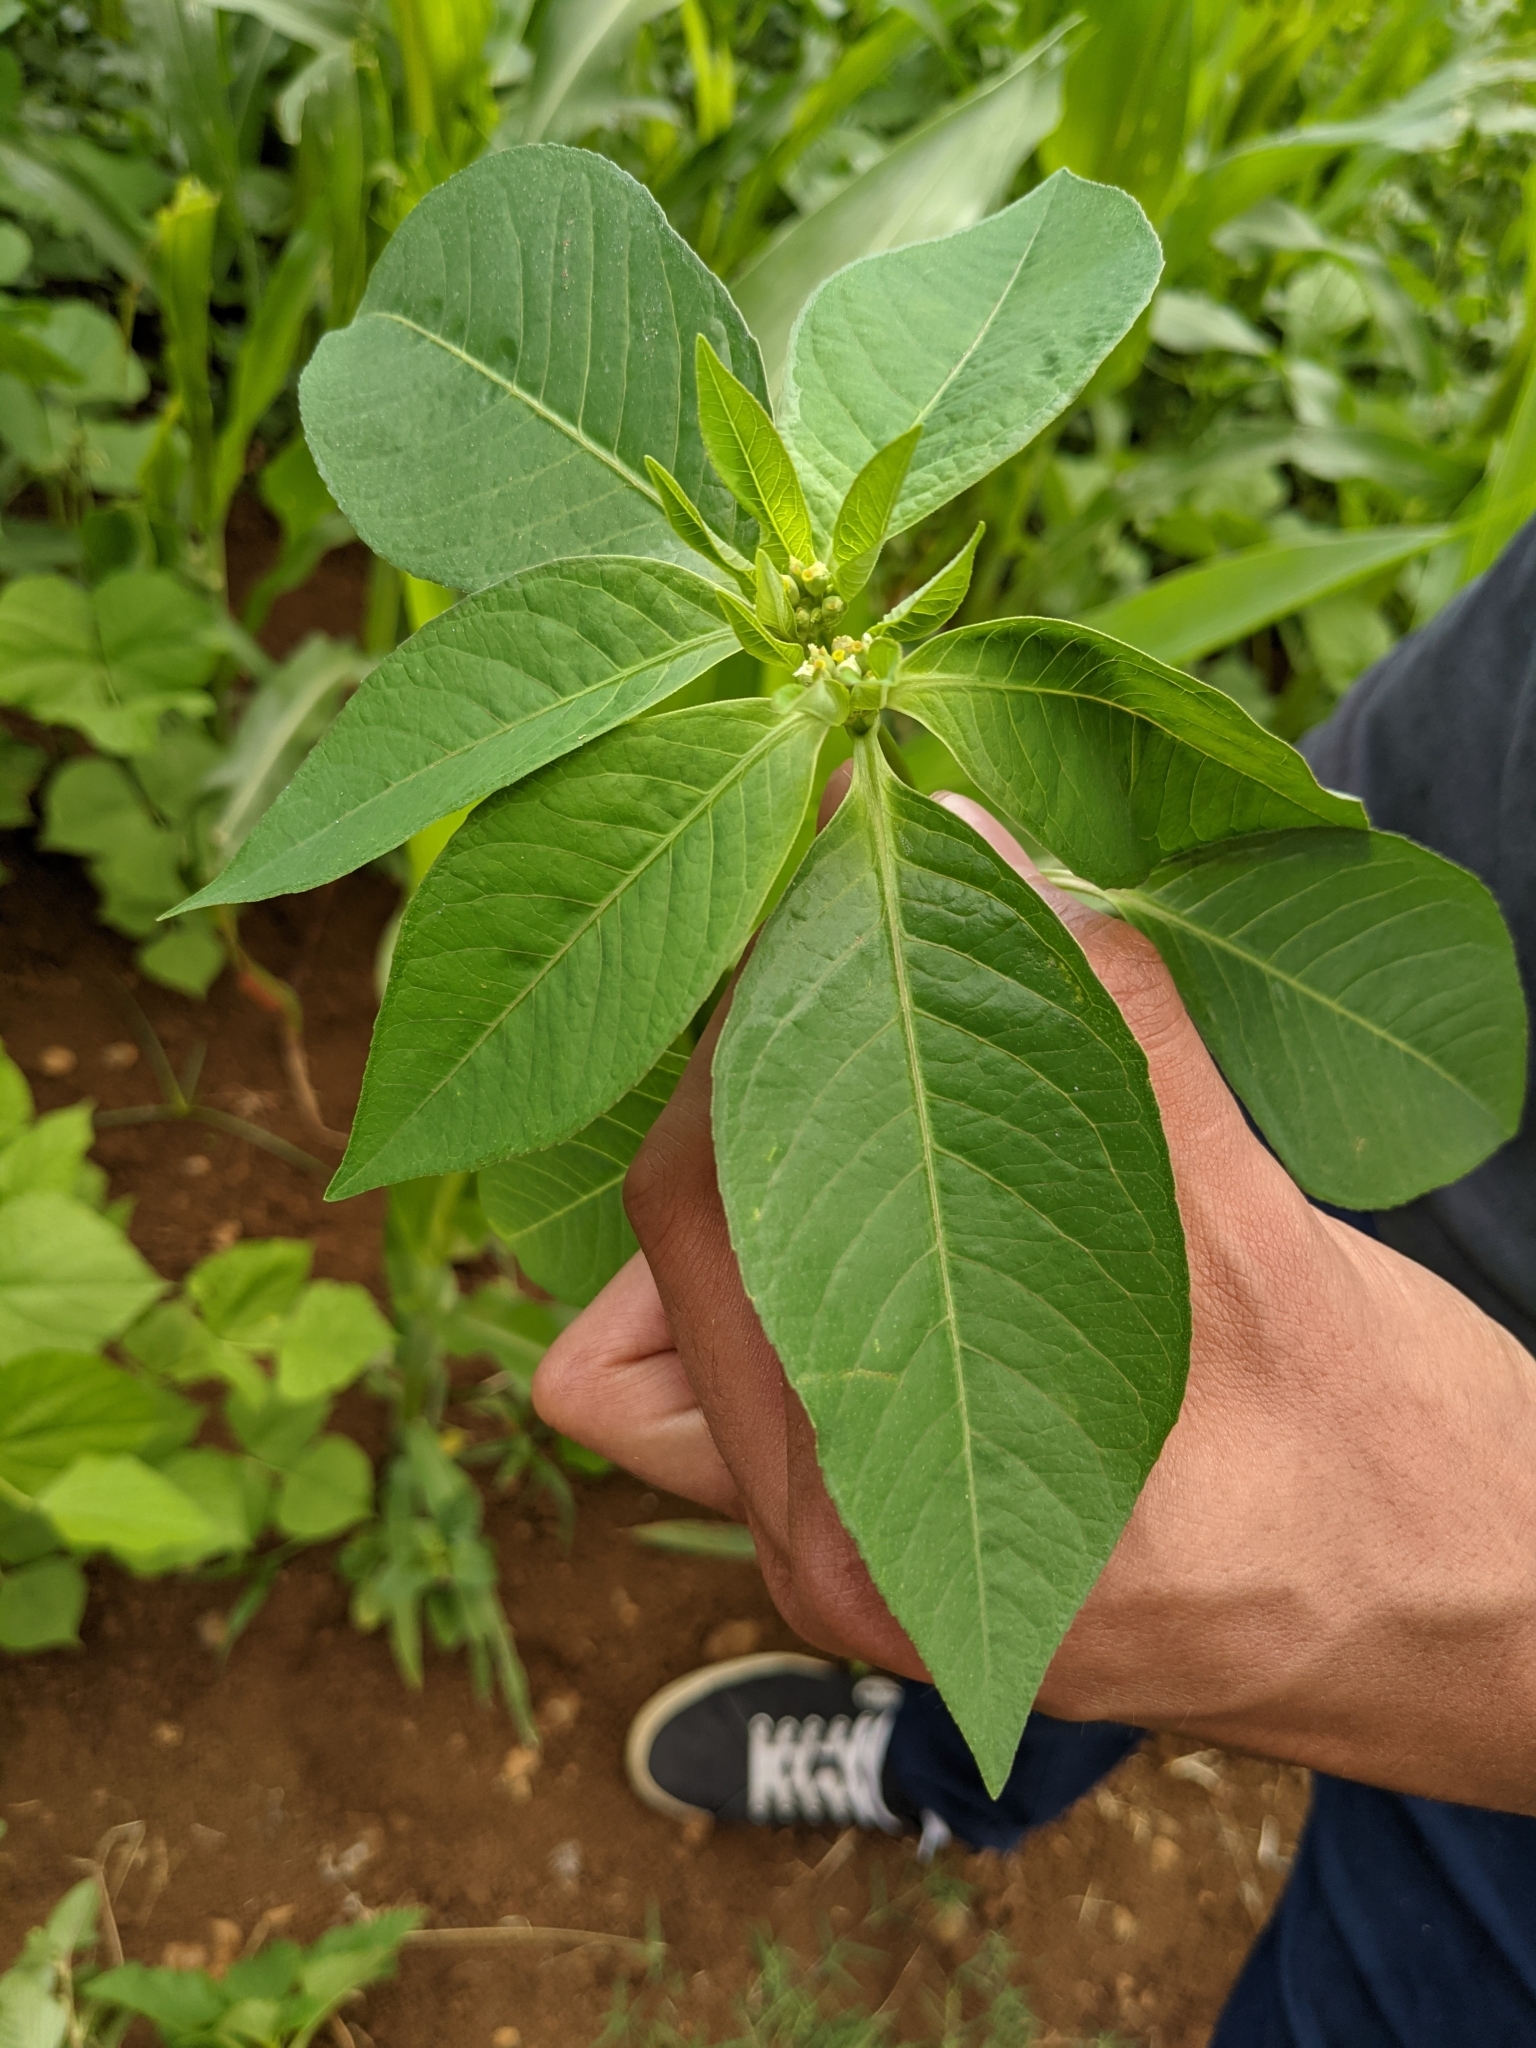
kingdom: Plantae
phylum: Tracheophyta
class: Magnoliopsida
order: Malpighiales
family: Euphorbiaceae
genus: Euphorbia
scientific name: Euphorbia heterophylla
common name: Mexican fireplant
